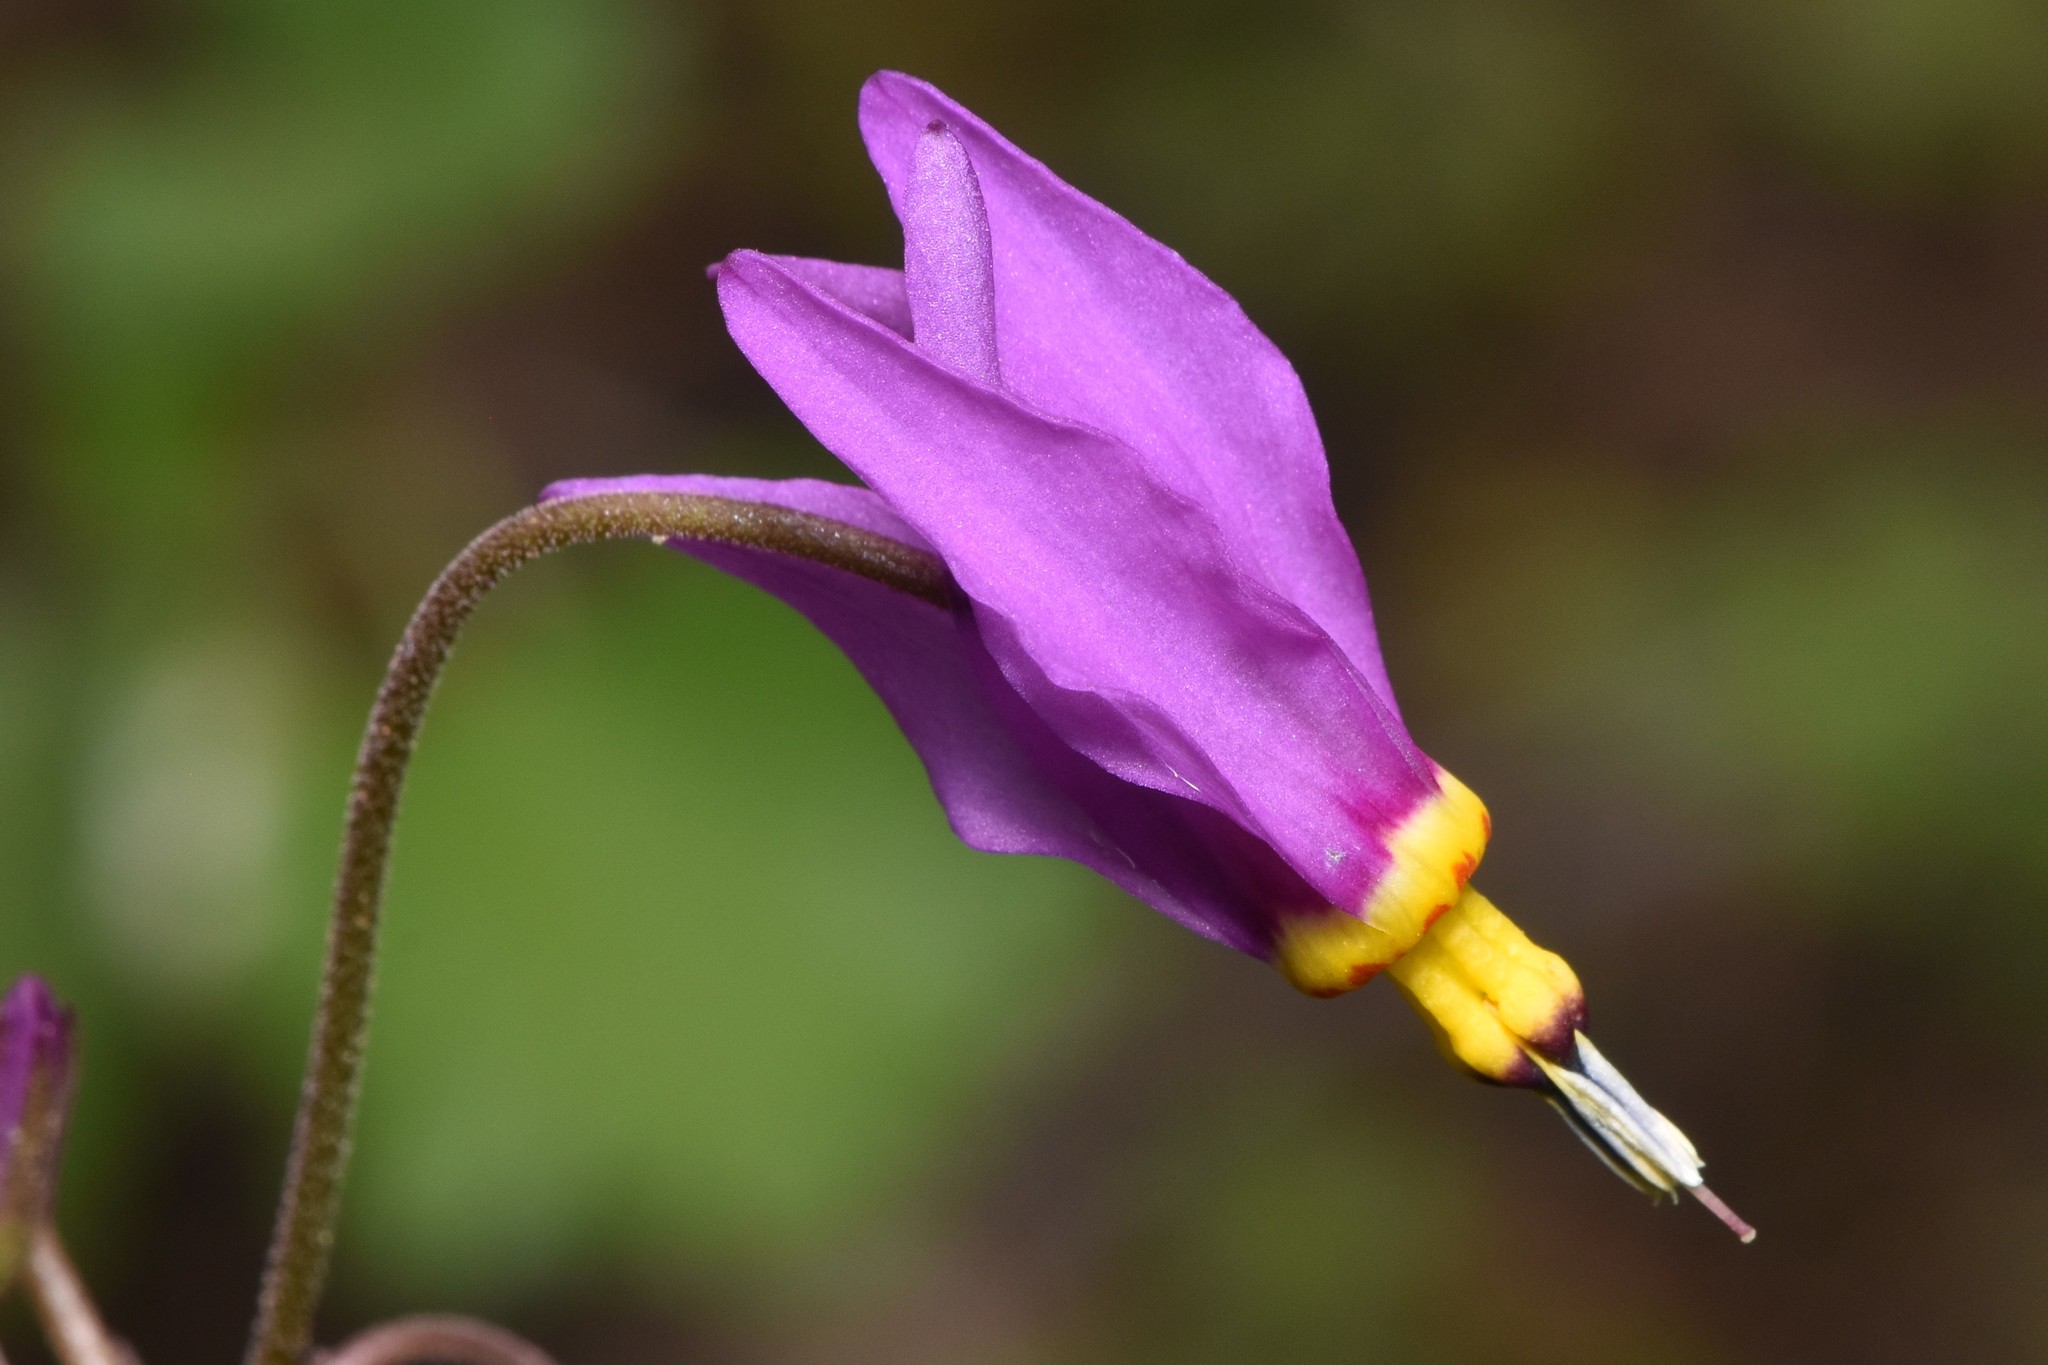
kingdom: Plantae
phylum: Tracheophyta
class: Magnoliopsida
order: Ericales
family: Primulaceae
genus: Dodecatheon
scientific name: Dodecatheon pulchellum
